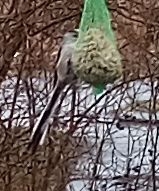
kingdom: Animalia
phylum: Chordata
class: Aves
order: Passeriformes
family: Aegithalidae
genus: Aegithalos
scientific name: Aegithalos caudatus
